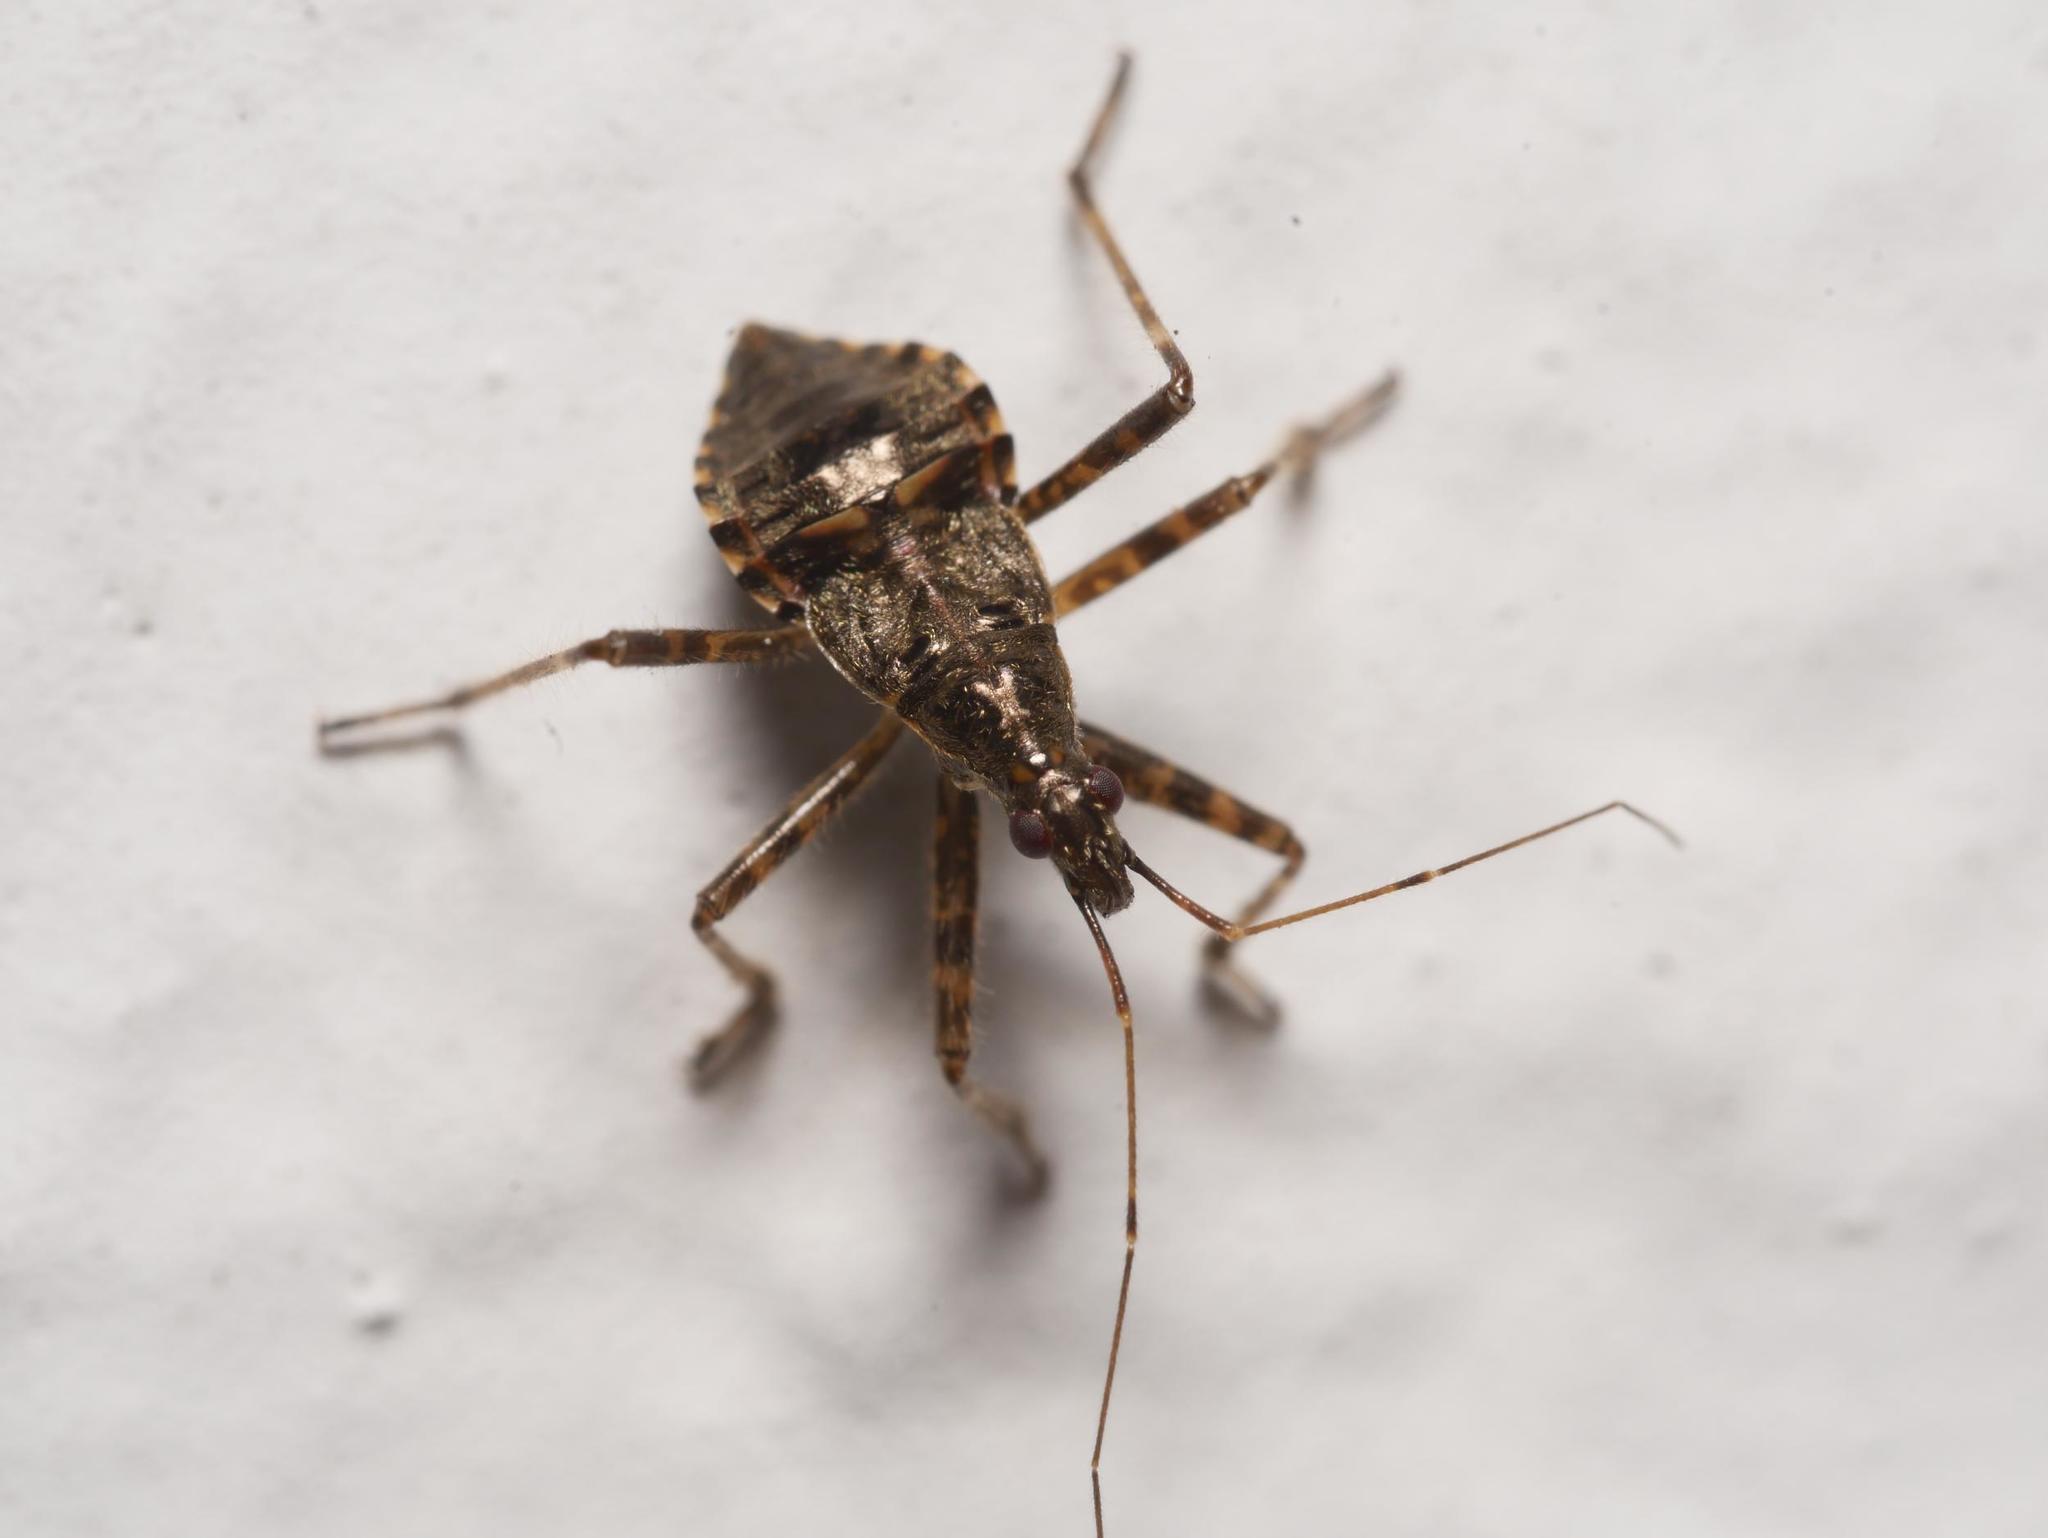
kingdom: Animalia
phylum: Arthropoda
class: Insecta
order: Hemiptera
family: Nabidae
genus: Himacerus
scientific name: Himacerus apterus
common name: Tree damsel bug
